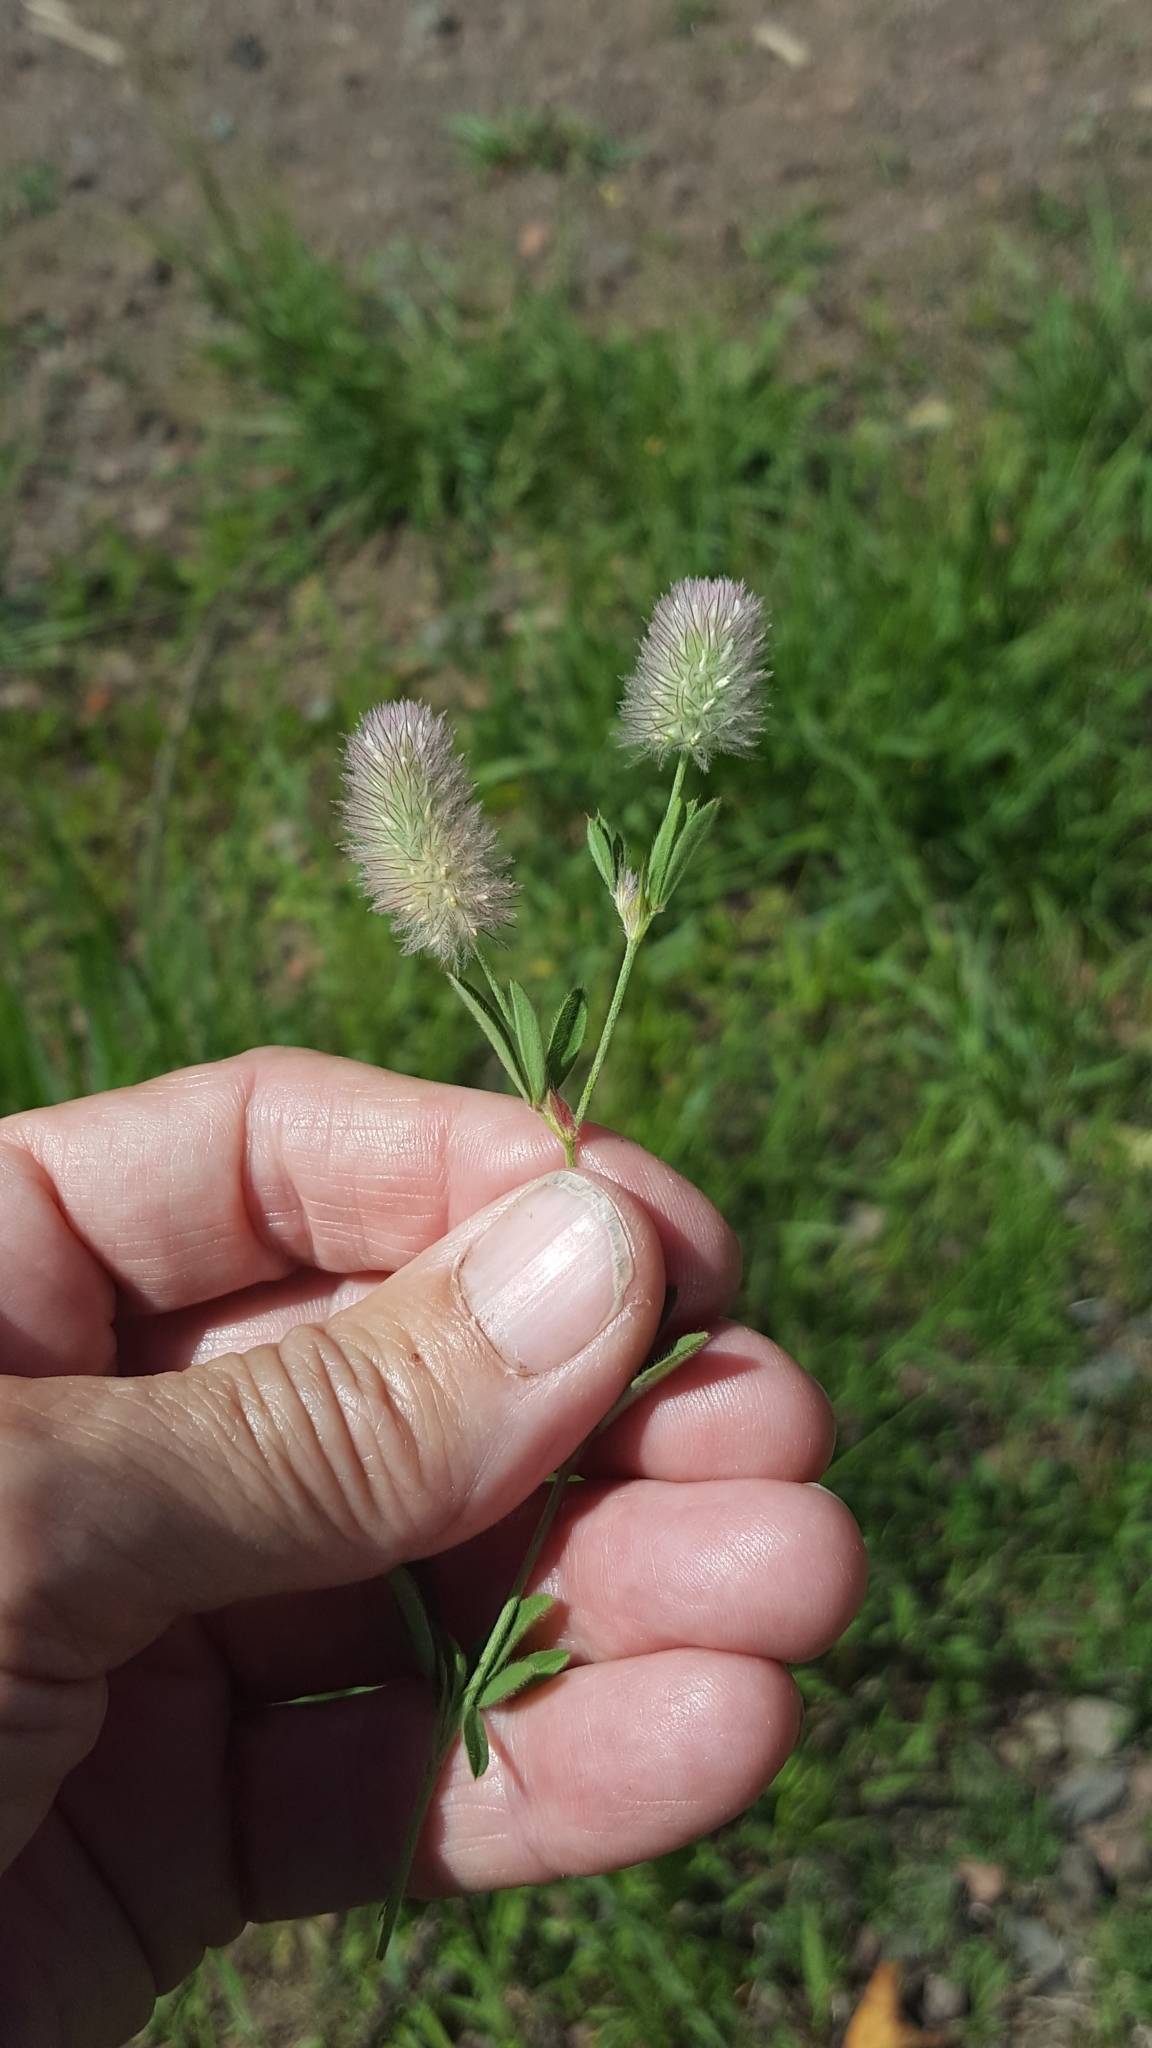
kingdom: Plantae
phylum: Tracheophyta
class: Magnoliopsida
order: Fabales
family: Fabaceae
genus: Trifolium
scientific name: Trifolium arvense
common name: Hare's-foot clover
